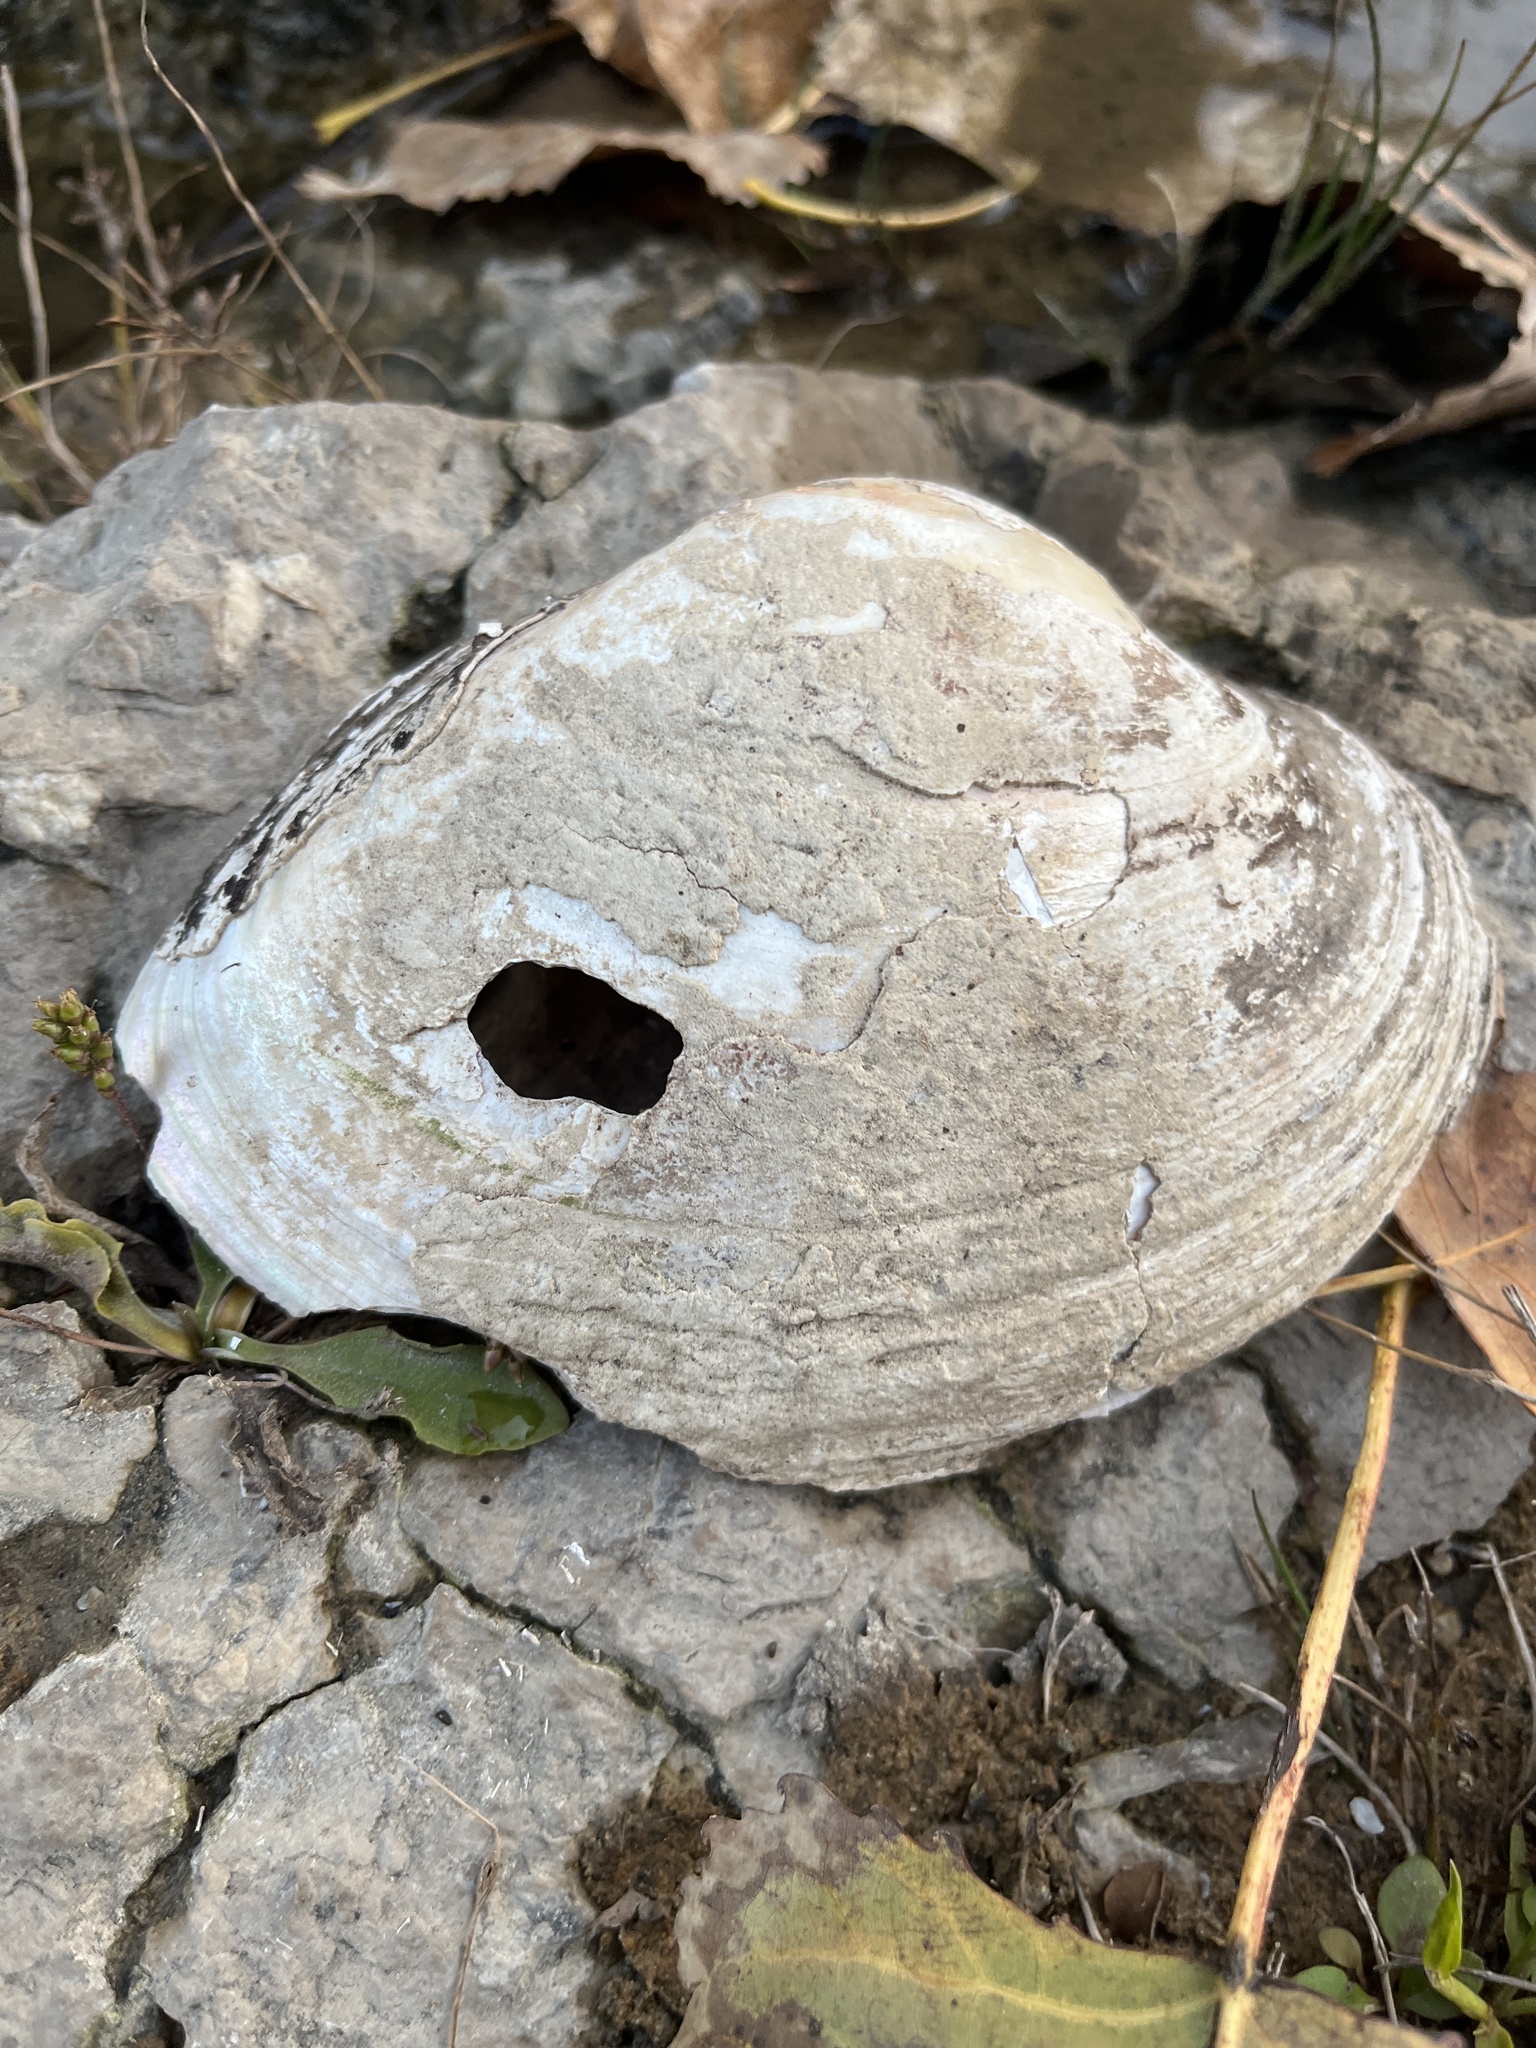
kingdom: Animalia
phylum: Mollusca
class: Bivalvia
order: Unionida
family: Unionidae
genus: Lampsilis
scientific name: Lampsilis cardium
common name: Plain pocketbook
